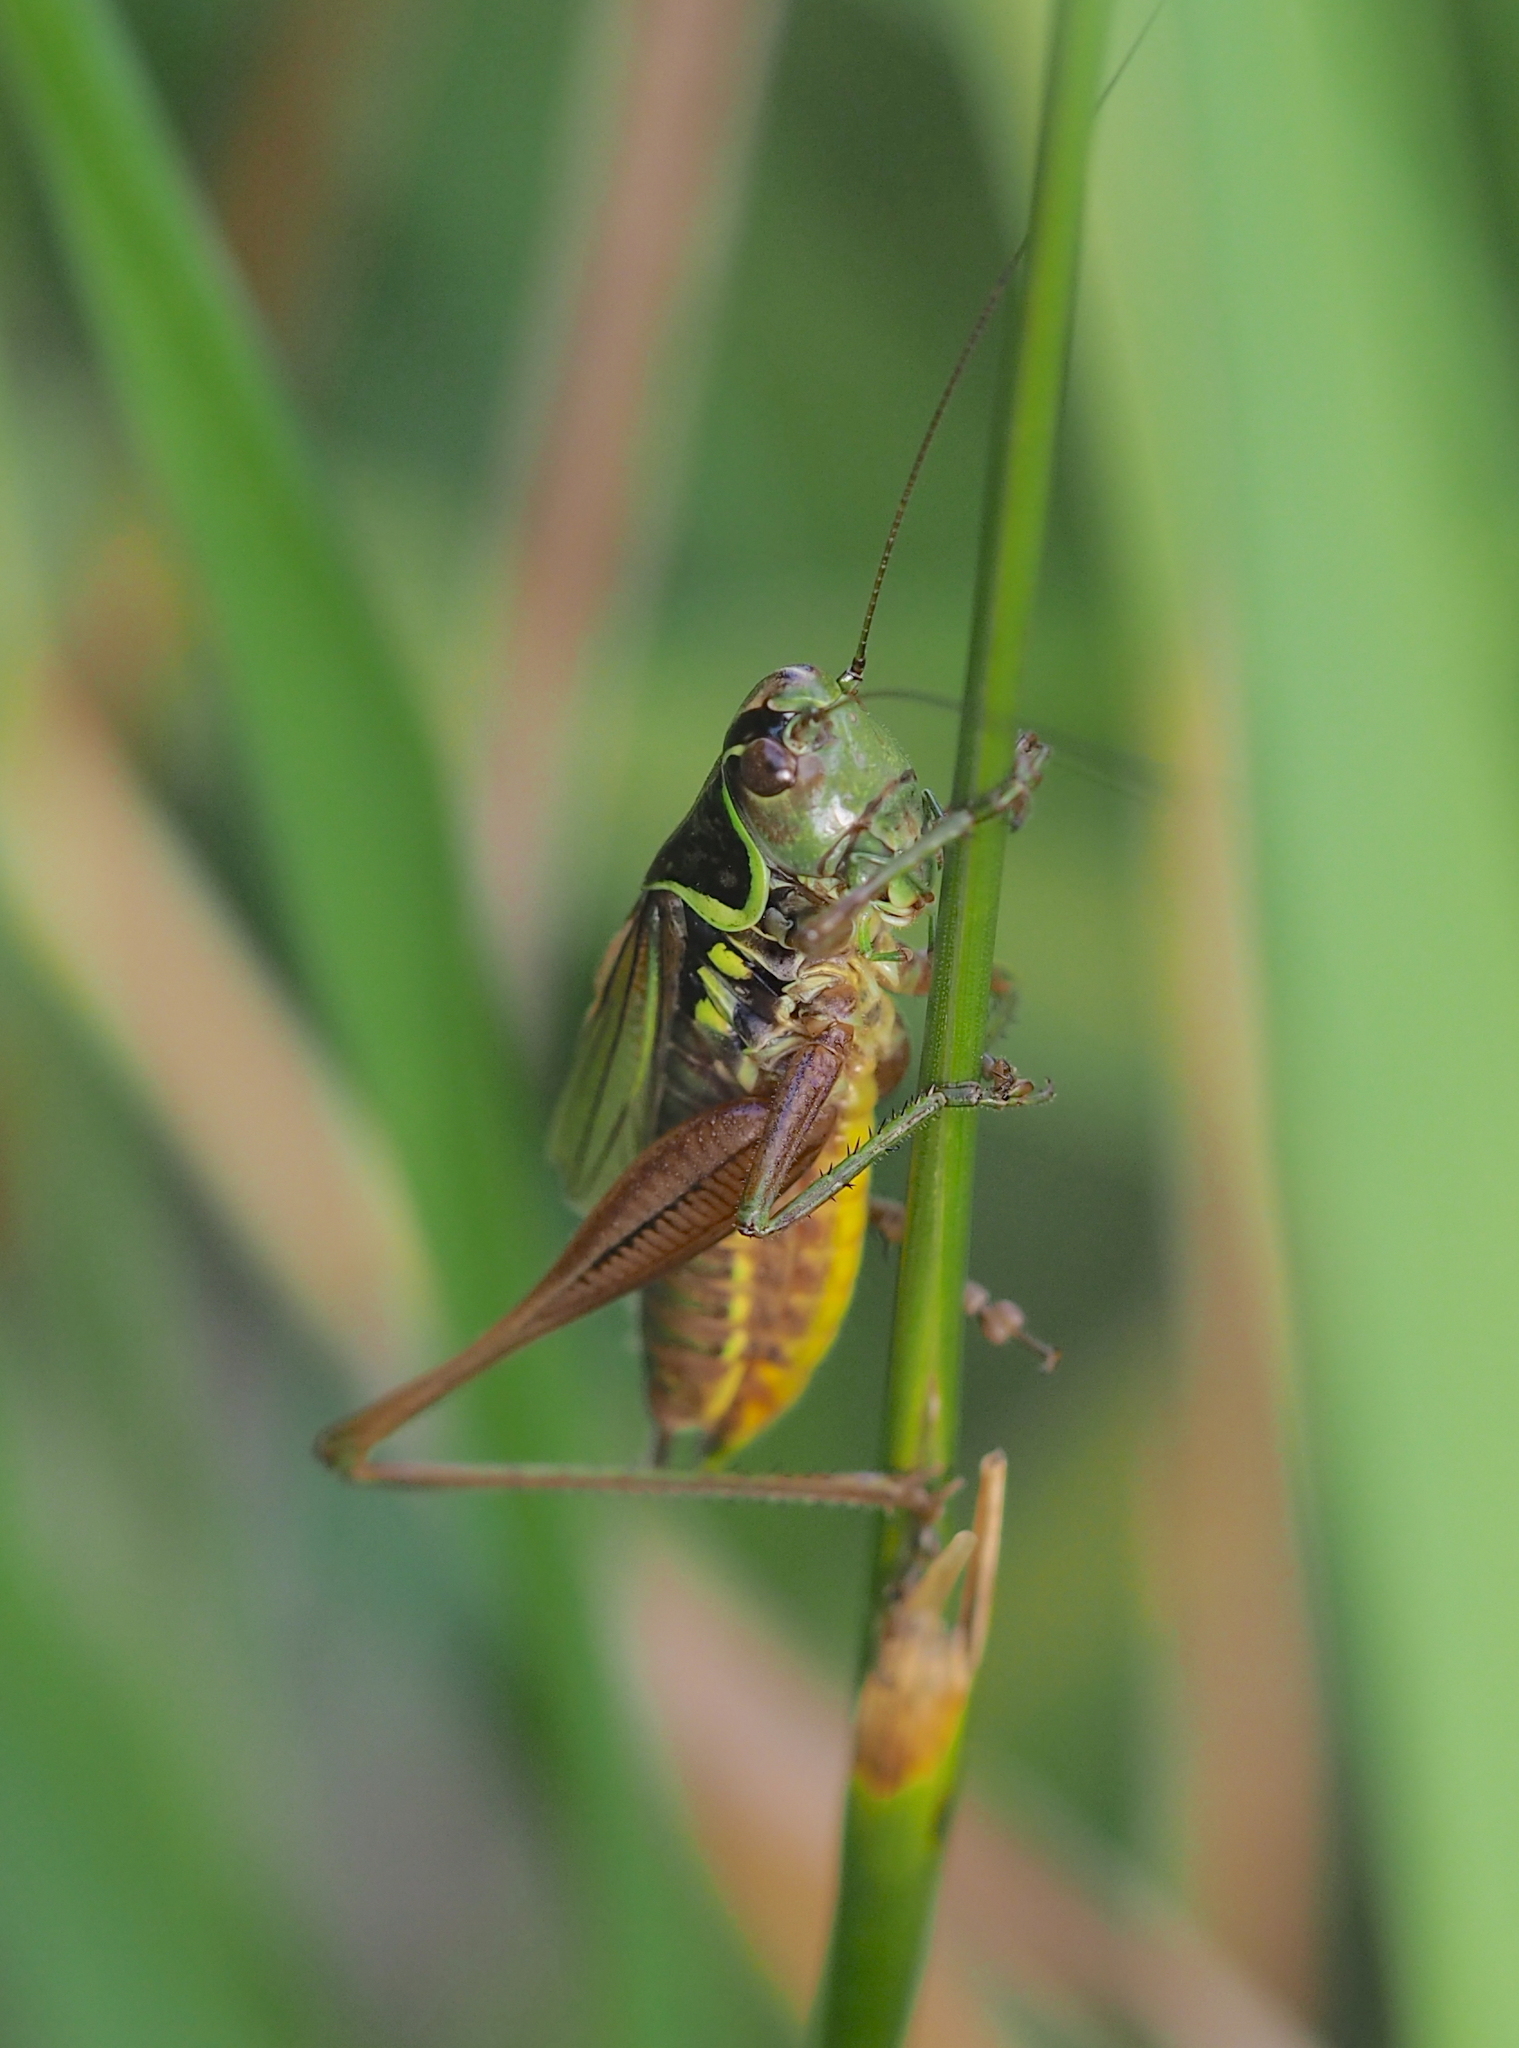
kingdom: Animalia
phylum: Arthropoda
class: Insecta
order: Orthoptera
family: Tettigoniidae
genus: Roeseliana
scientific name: Roeseliana roeselii
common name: Roesel's bush cricket
